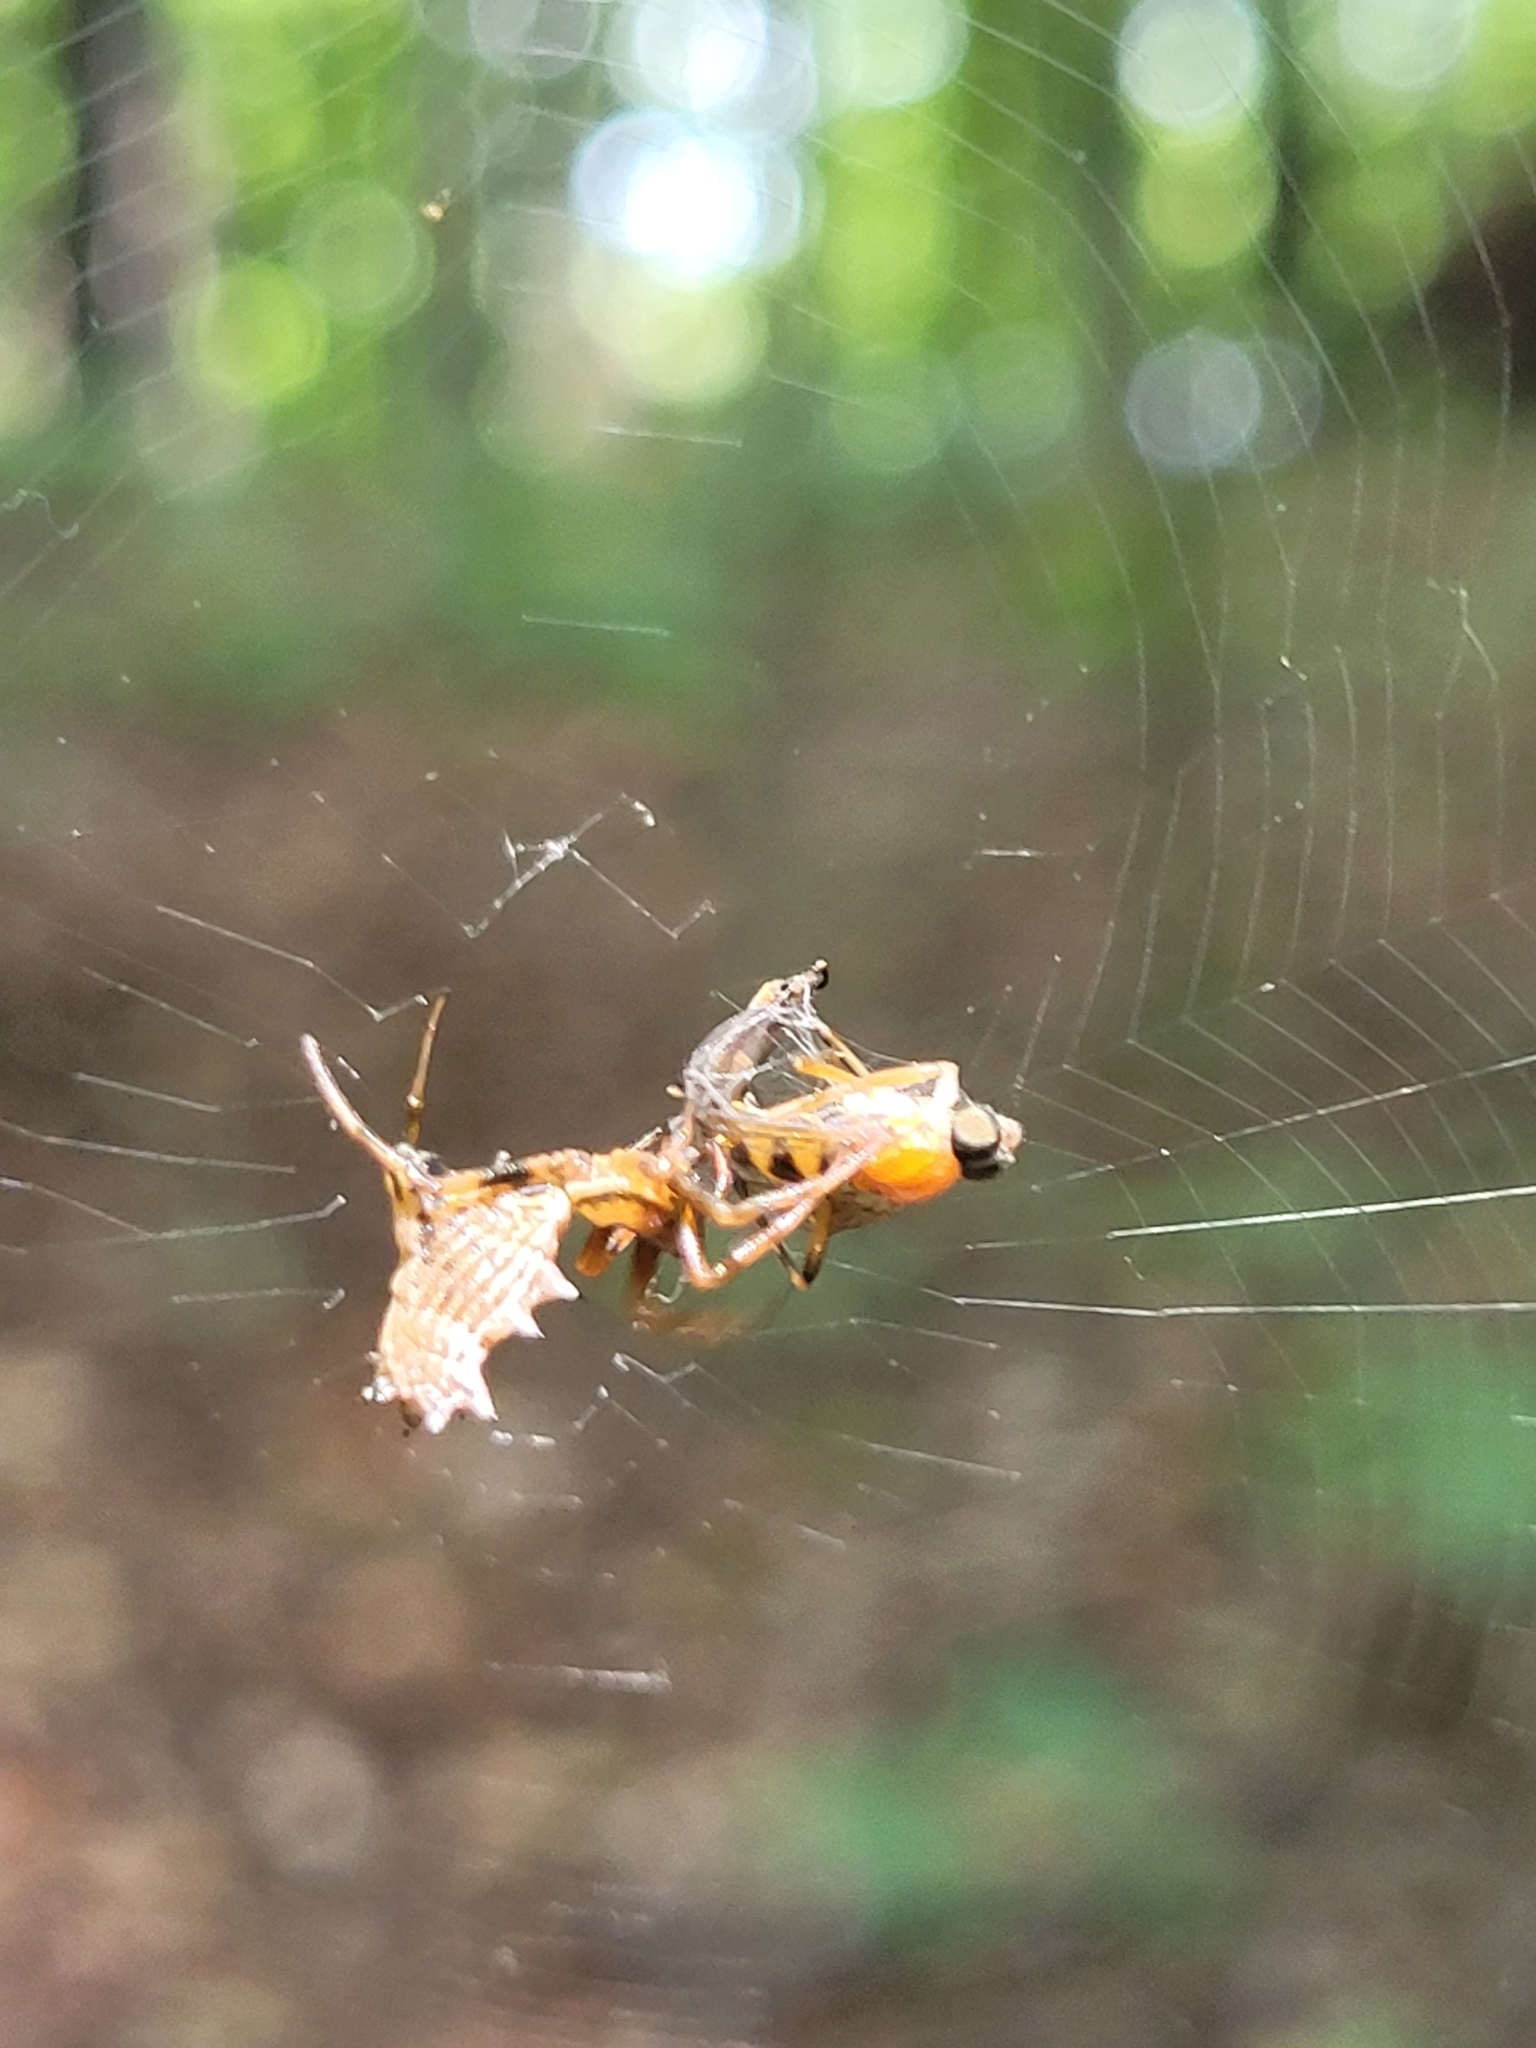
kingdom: Animalia
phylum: Arthropoda
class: Arachnida
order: Araneae
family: Araneidae
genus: Micrathena
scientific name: Micrathena gracilis
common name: Orb weavers
